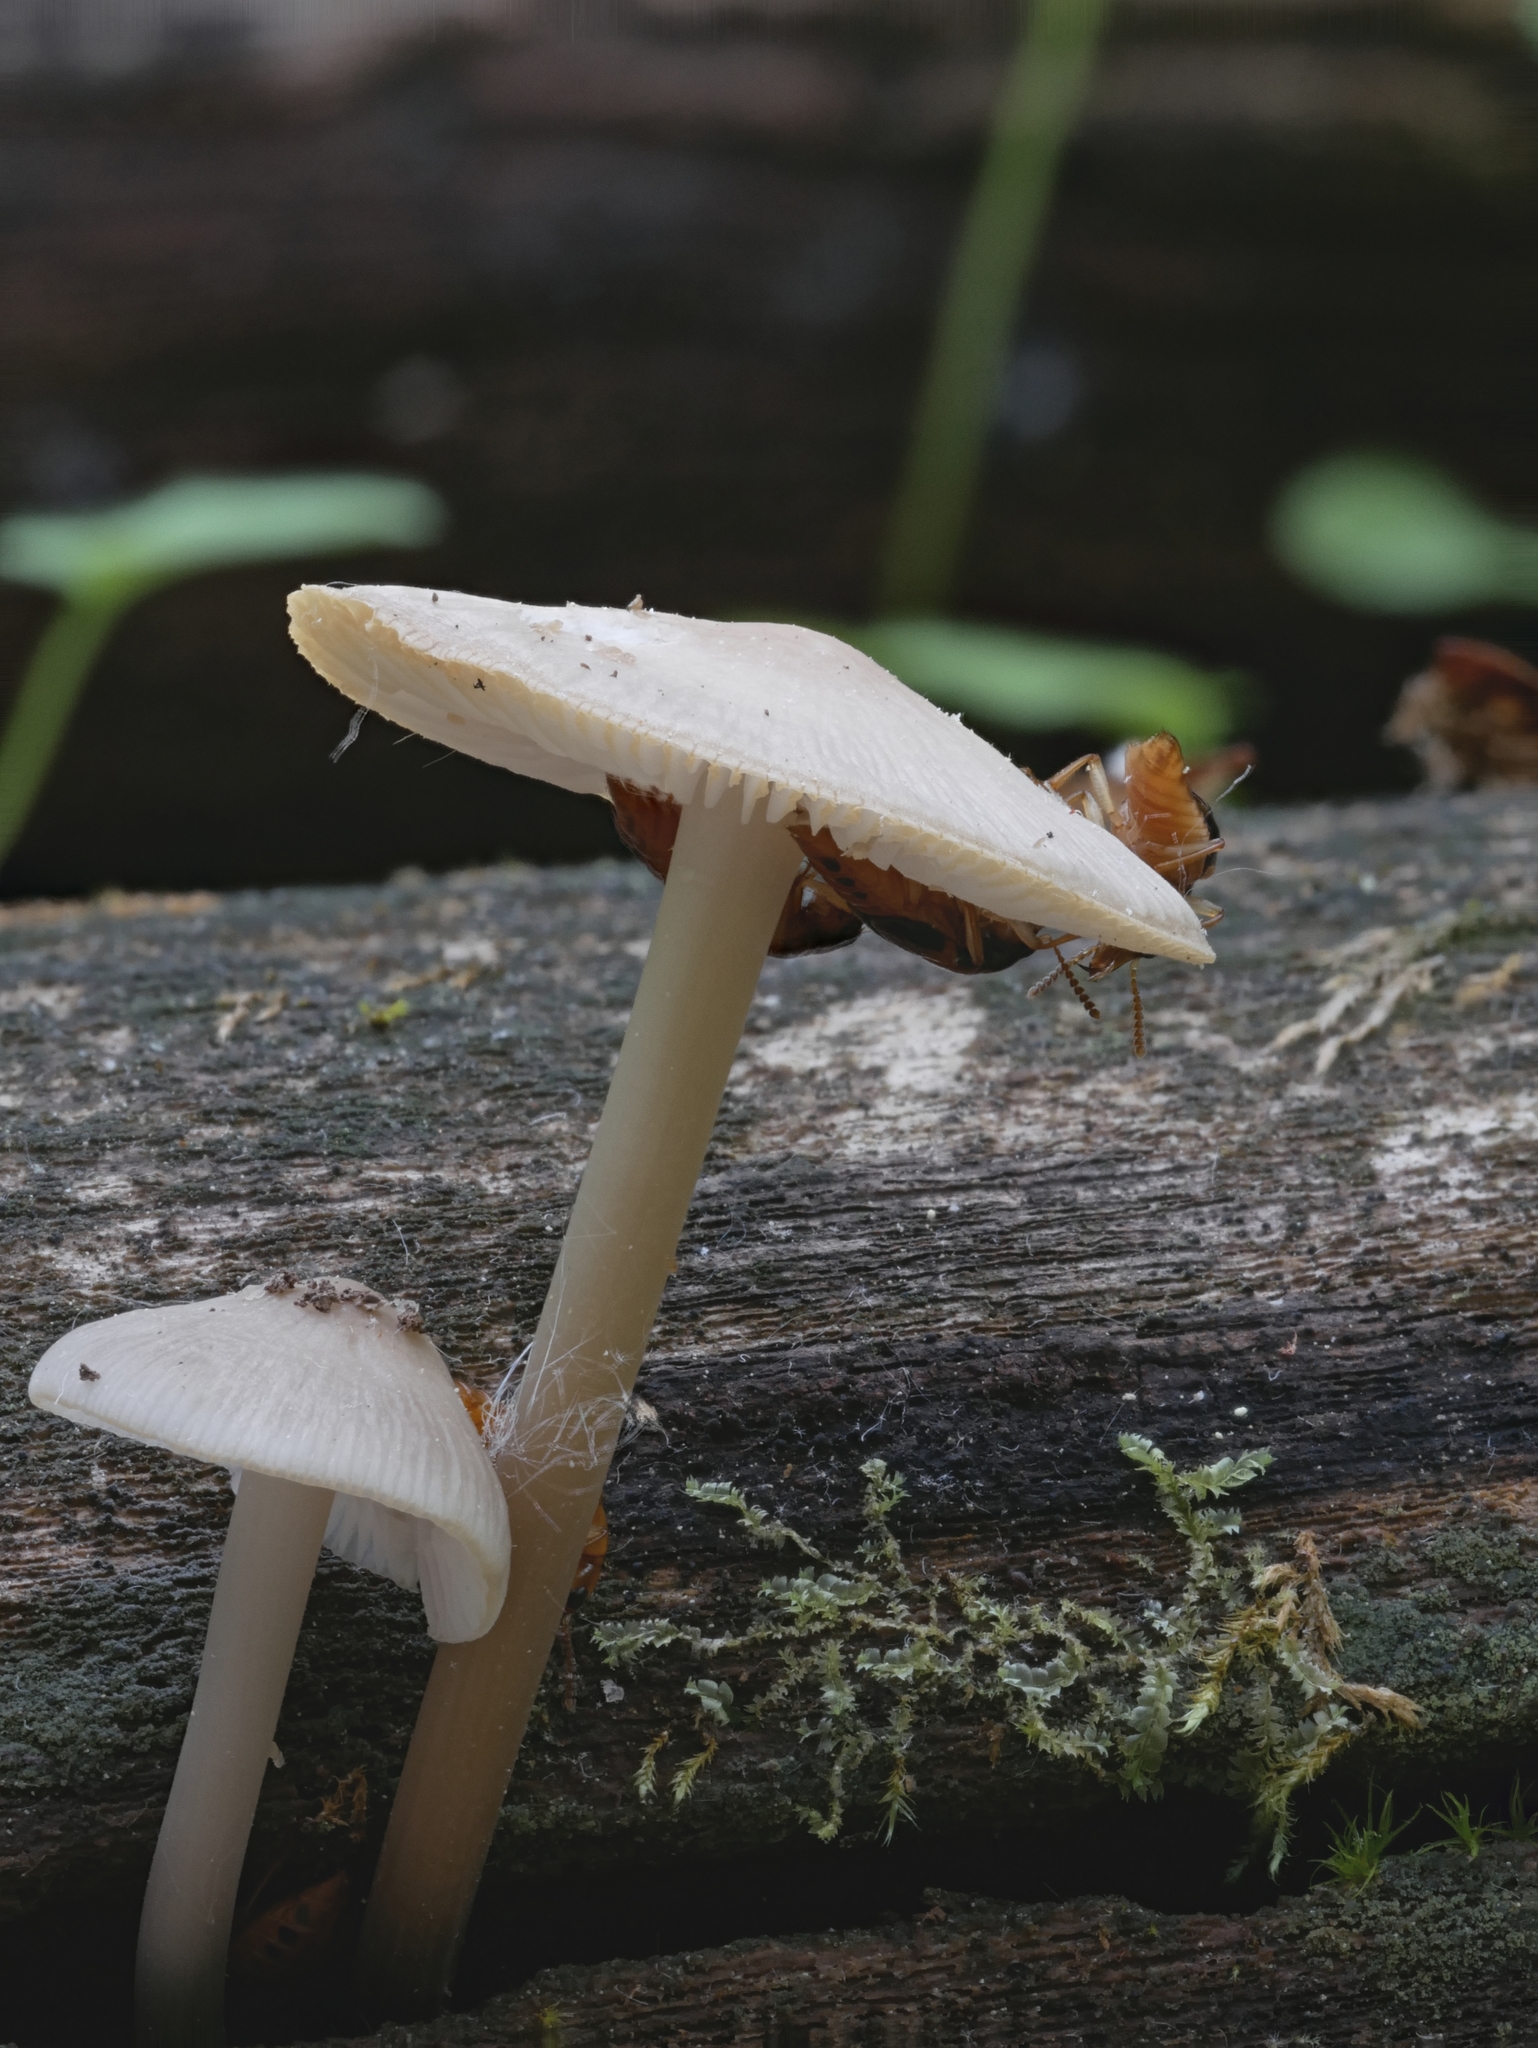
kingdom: Animalia
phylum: Arthropoda
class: Insecta
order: Coleoptera
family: Staphylinidae
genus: Pseudoxyporus
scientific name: Pseudoxyporus lateralis
